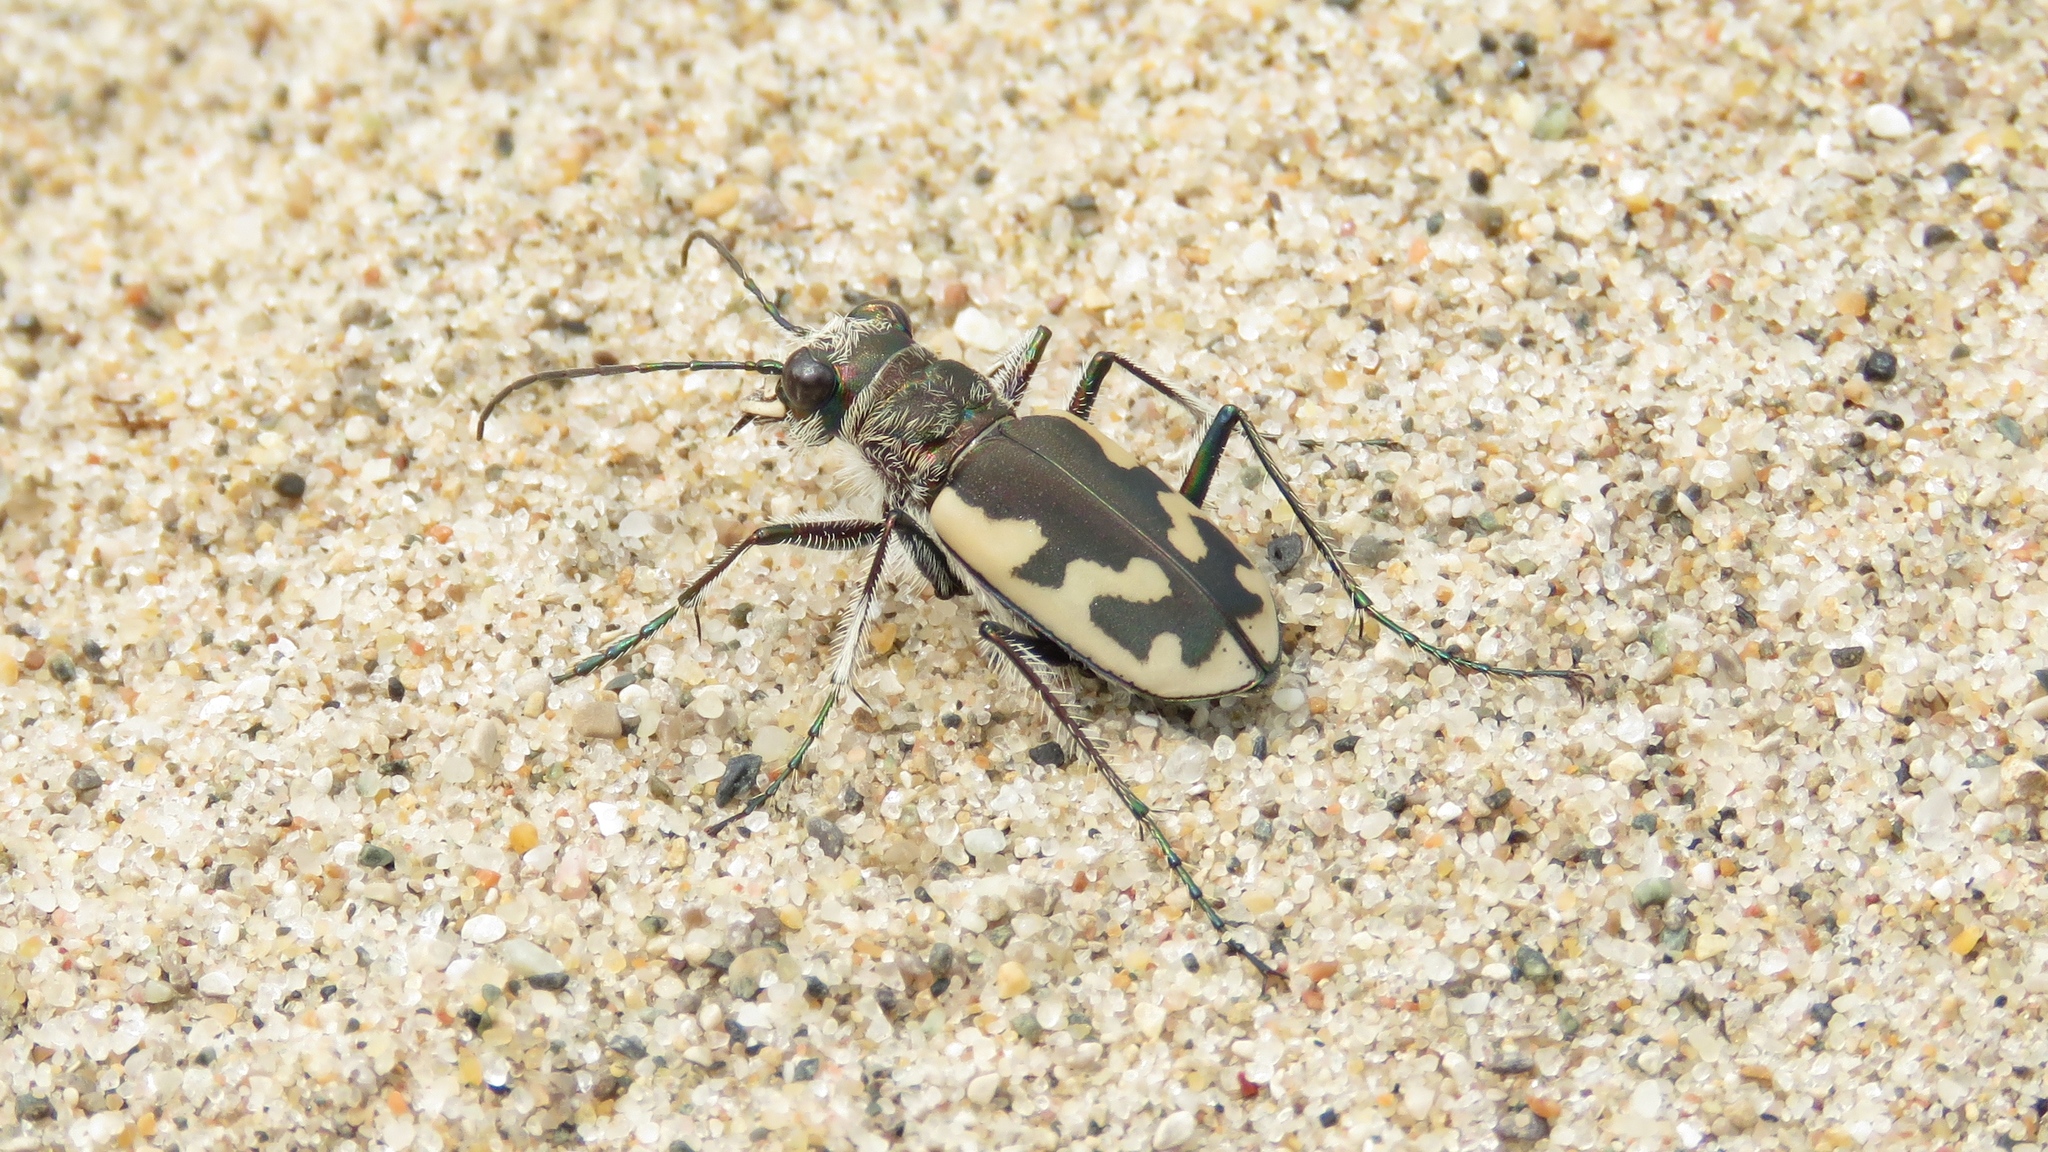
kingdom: Animalia
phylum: Arthropoda
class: Insecta
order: Coleoptera
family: Carabidae
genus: Cicindela
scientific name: Cicindela formosa
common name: Big sand tiger beetle
